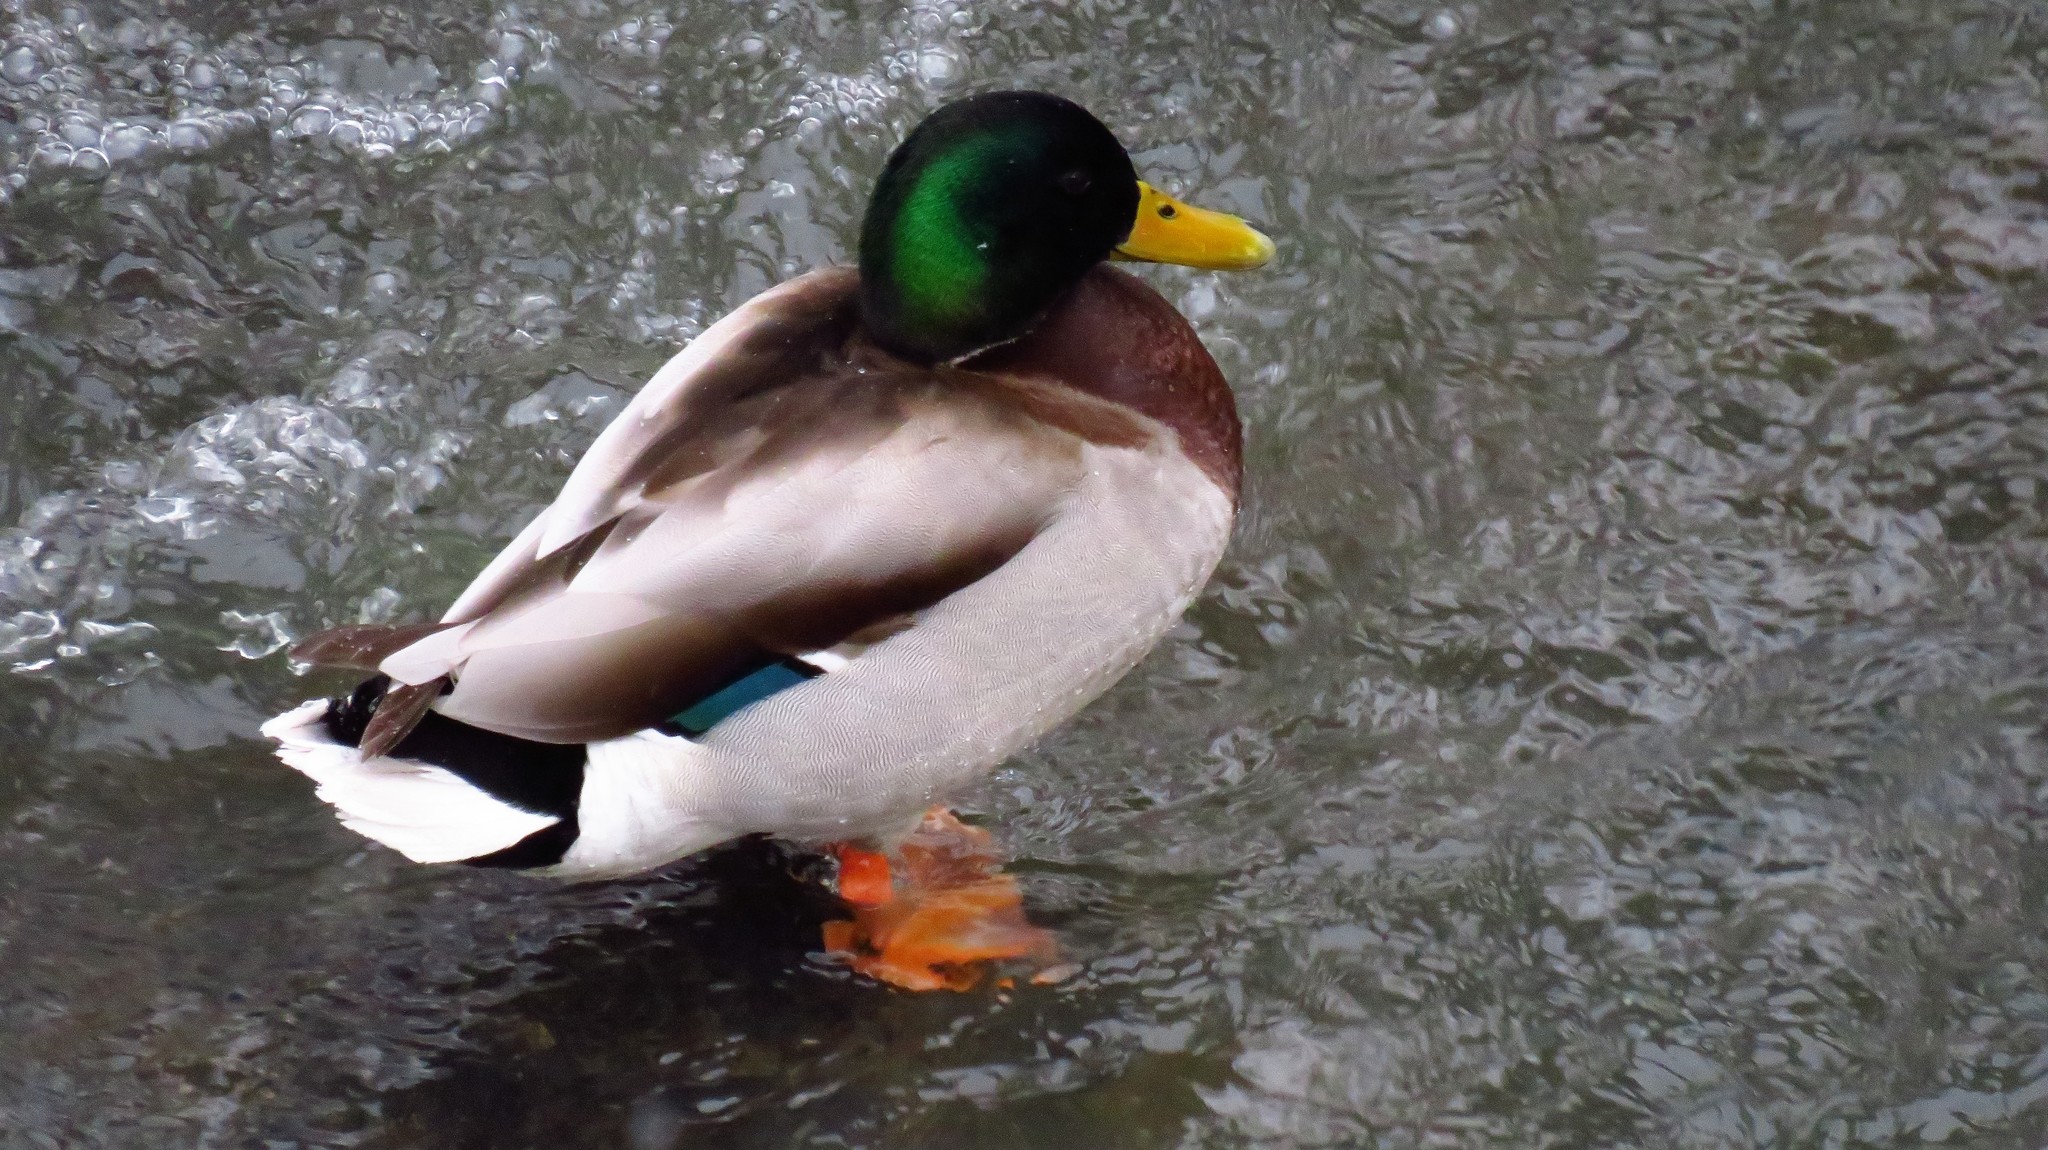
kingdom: Animalia
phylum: Chordata
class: Aves
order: Anseriformes
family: Anatidae
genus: Anas
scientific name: Anas platyrhynchos
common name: Mallard
